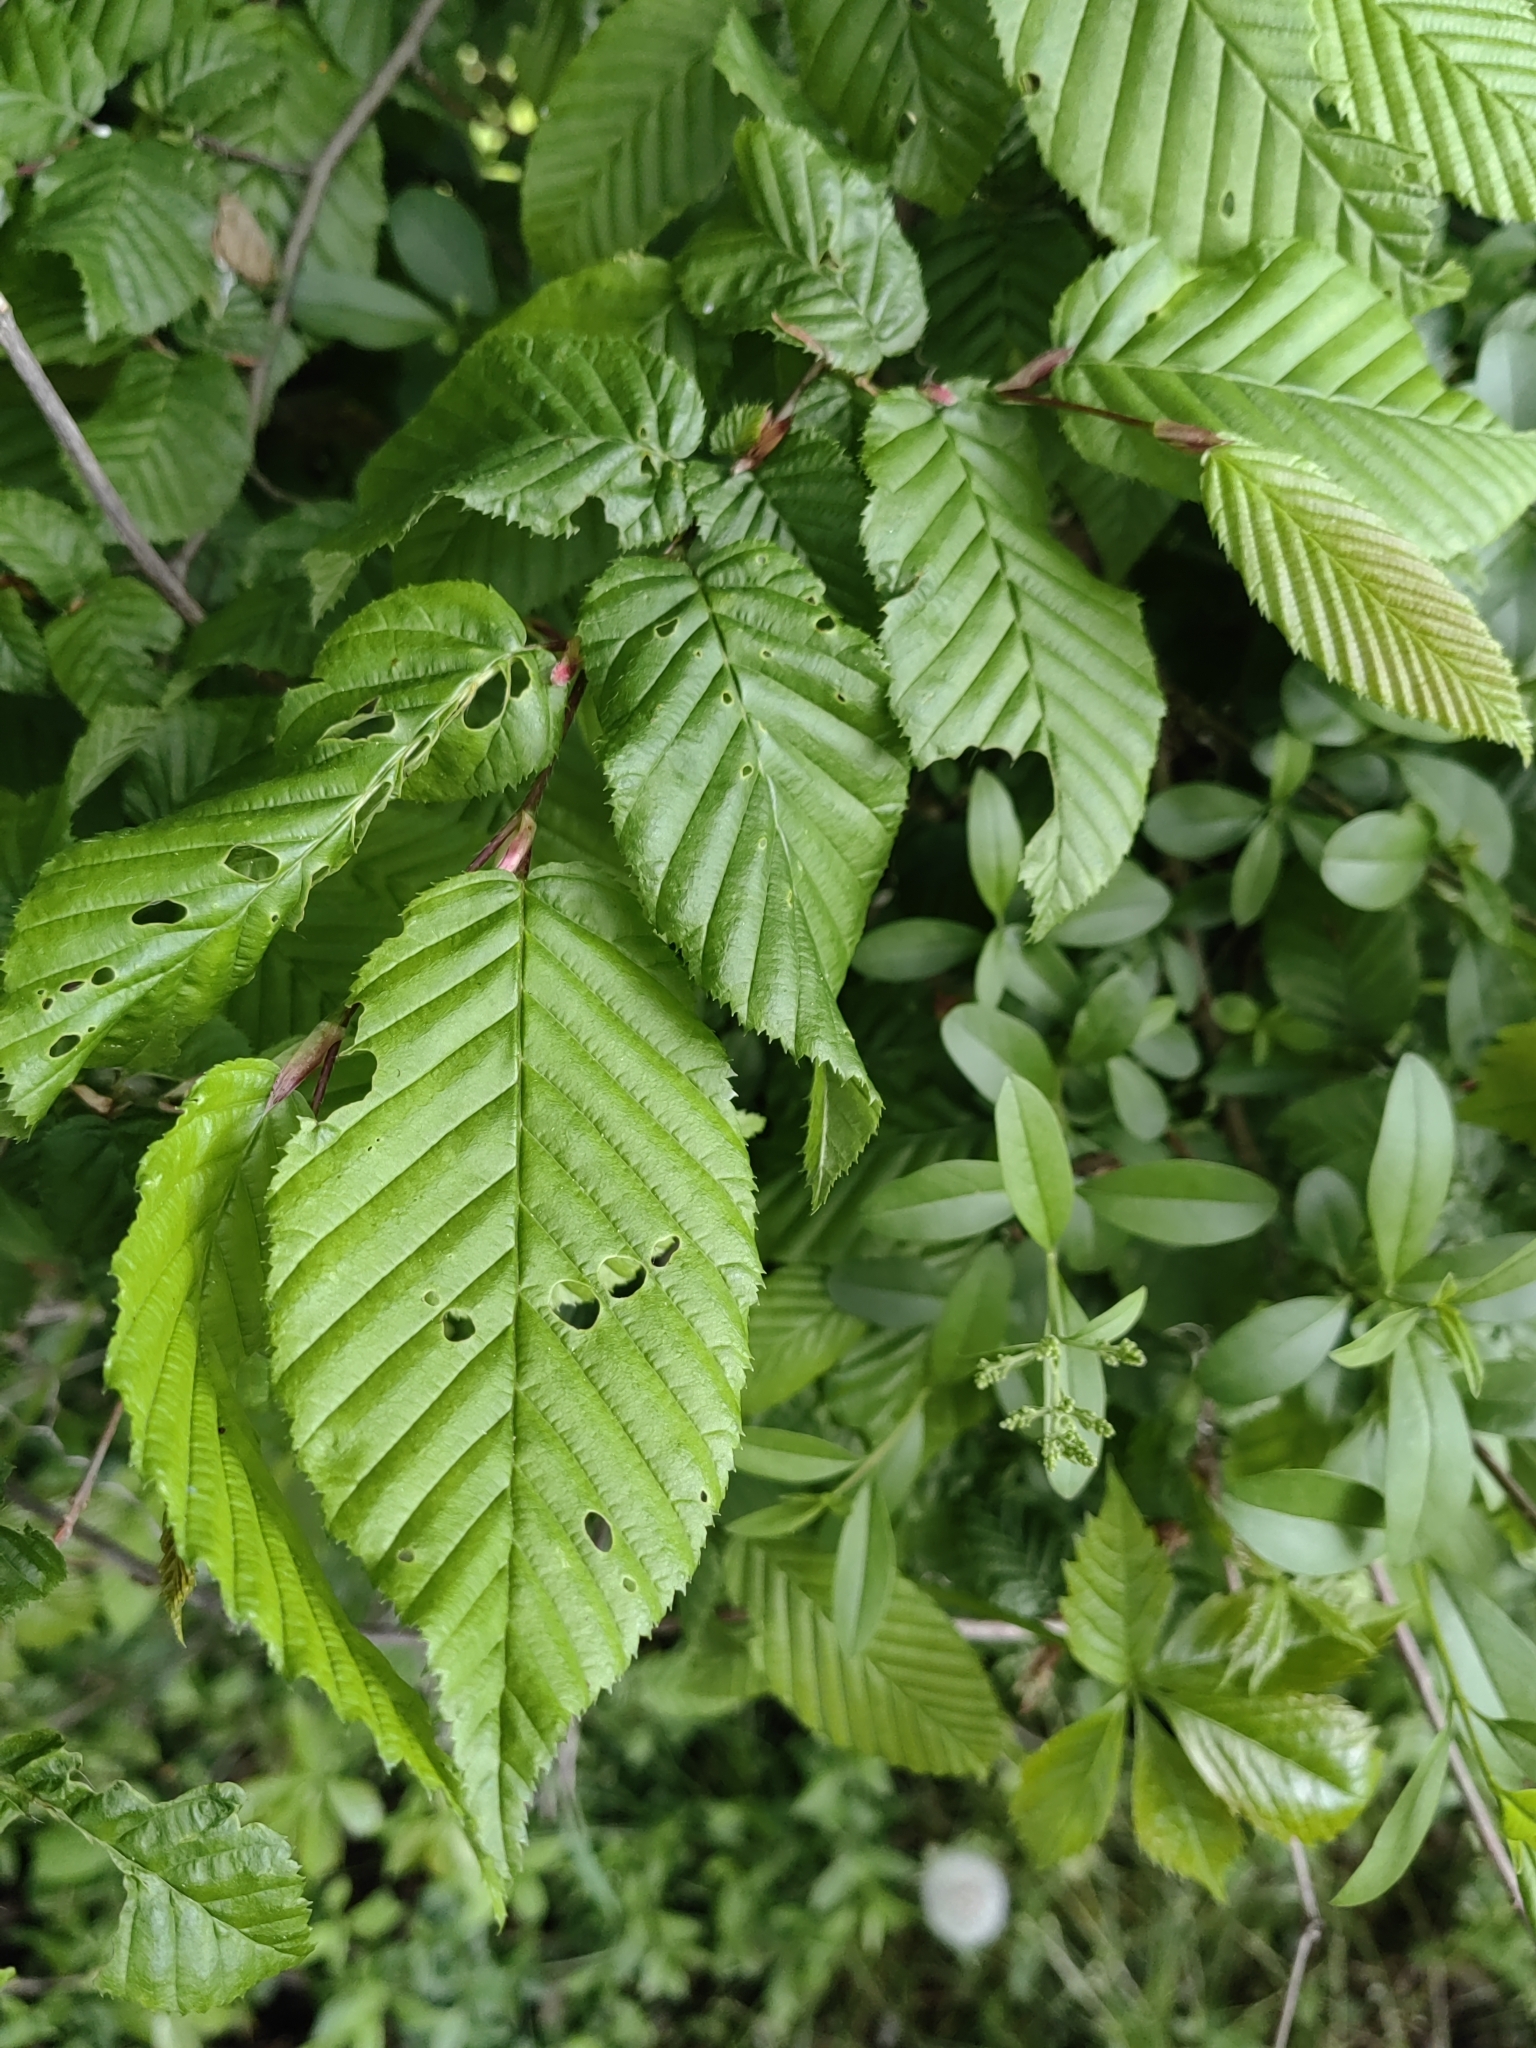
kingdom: Plantae
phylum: Tracheophyta
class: Magnoliopsida
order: Fagales
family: Betulaceae
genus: Carpinus
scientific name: Carpinus betulus
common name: Hornbeam
